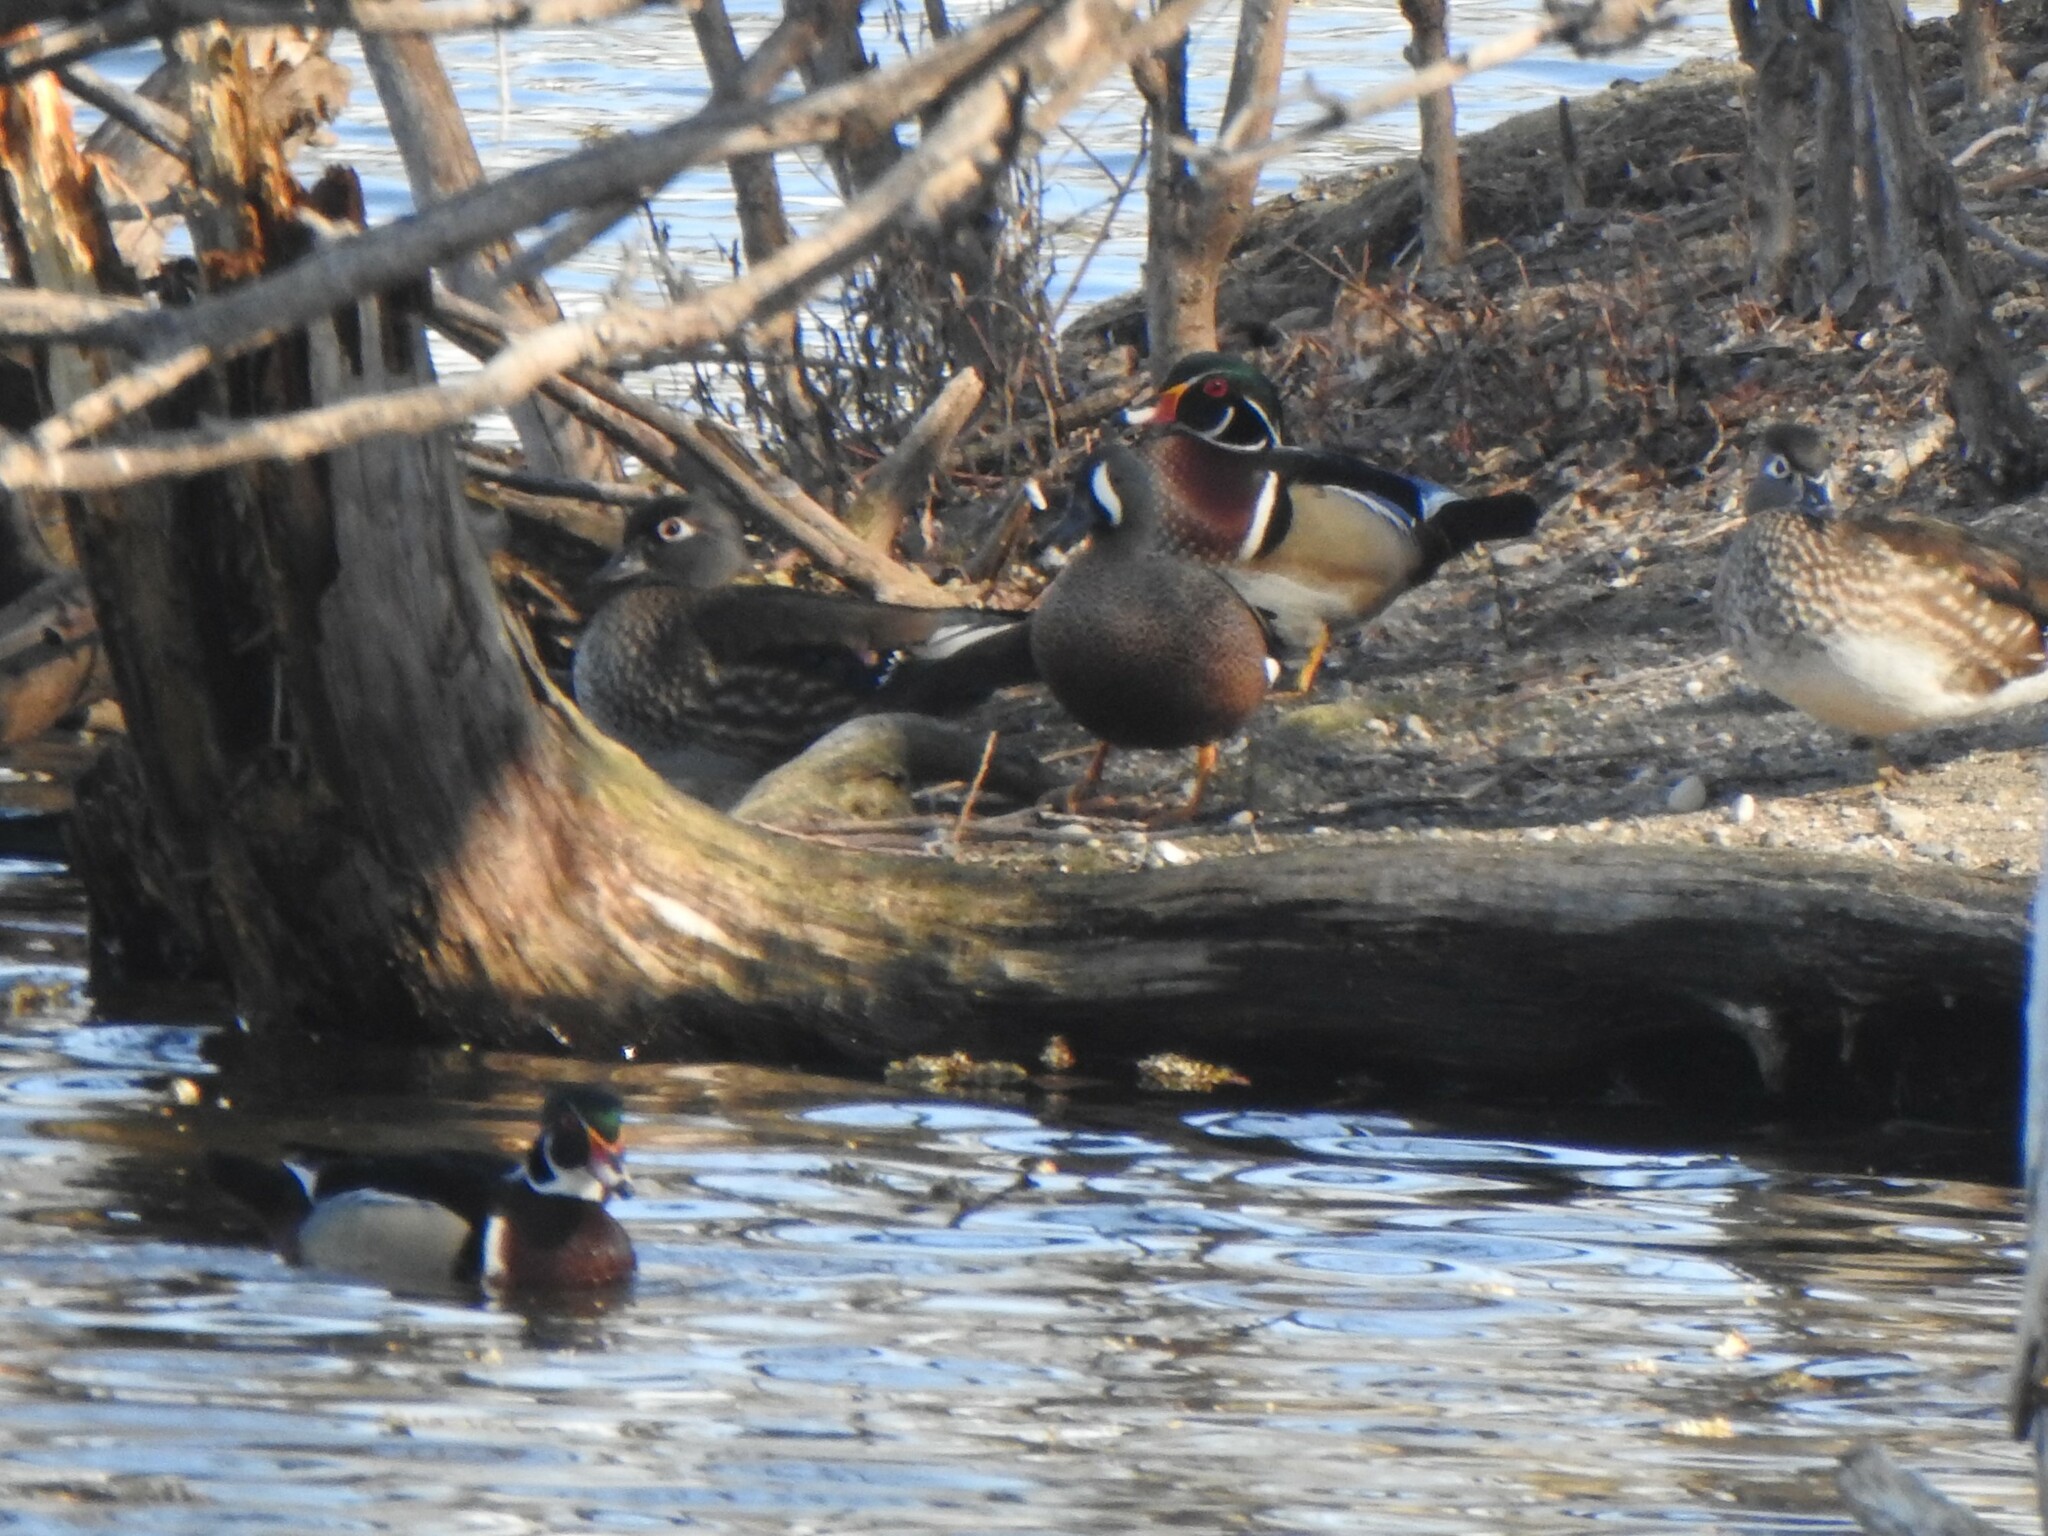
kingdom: Animalia
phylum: Chordata
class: Aves
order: Anseriformes
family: Anatidae
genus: Spatula
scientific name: Spatula discors
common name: Blue-winged teal
